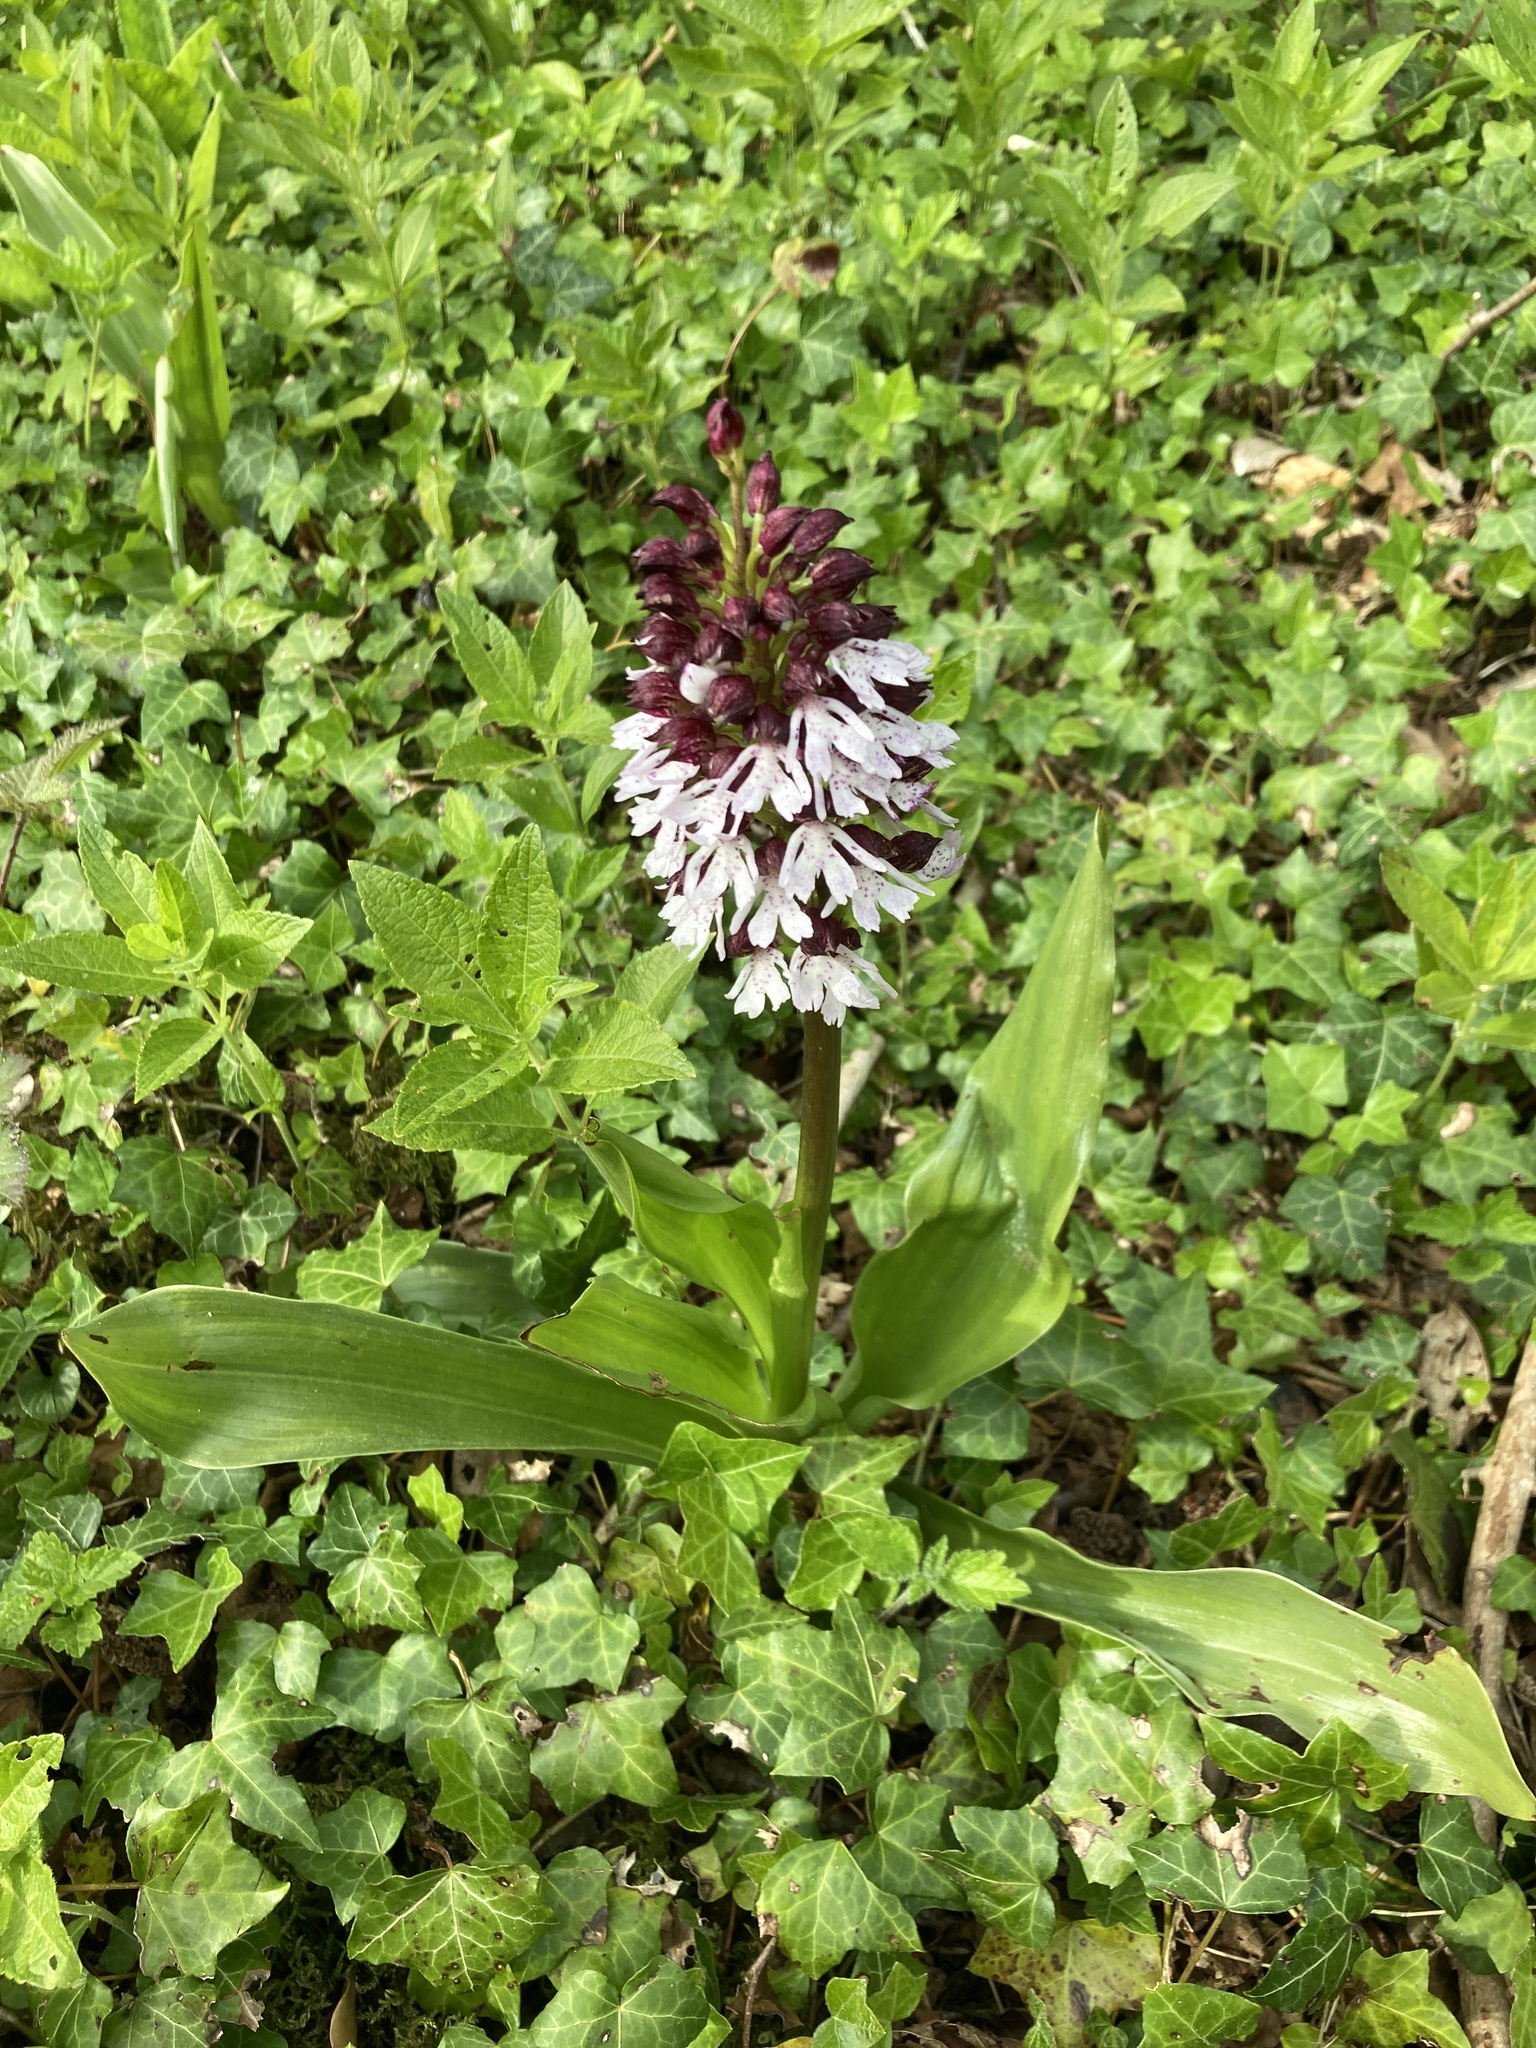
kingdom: Plantae
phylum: Tracheophyta
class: Liliopsida
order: Asparagales
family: Orchidaceae
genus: Orchis
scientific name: Orchis purpurea
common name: Lady orchid
